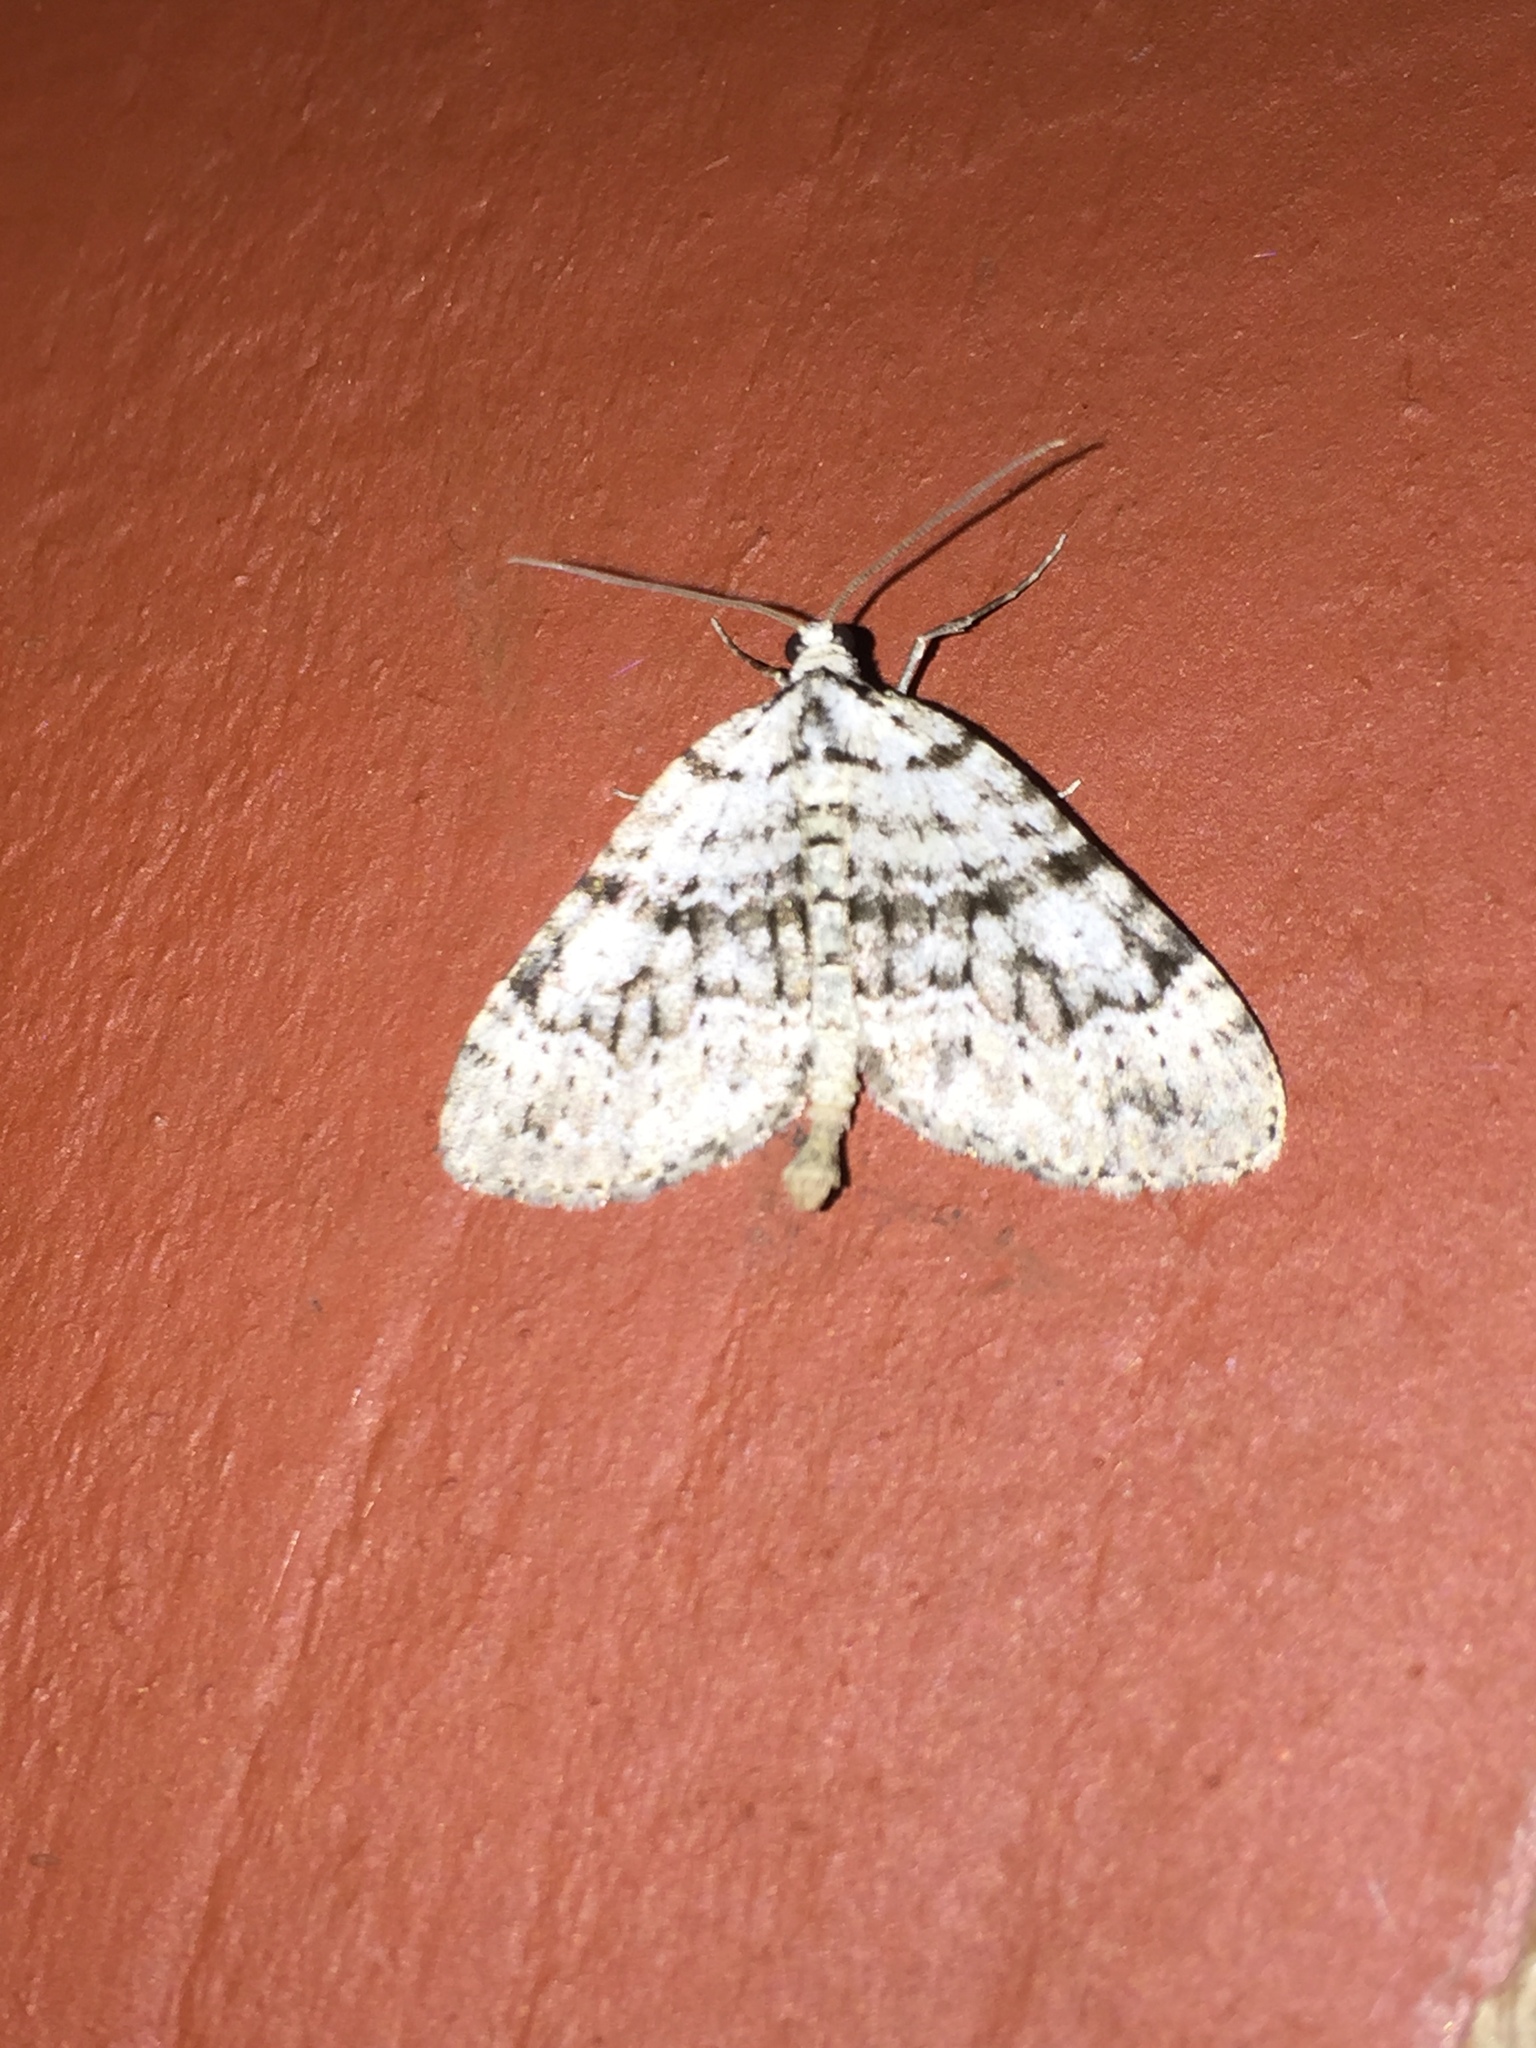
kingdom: Animalia
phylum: Arthropoda
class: Insecta
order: Lepidoptera
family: Geometridae
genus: Perizoma
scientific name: Perizoma curvilinea
